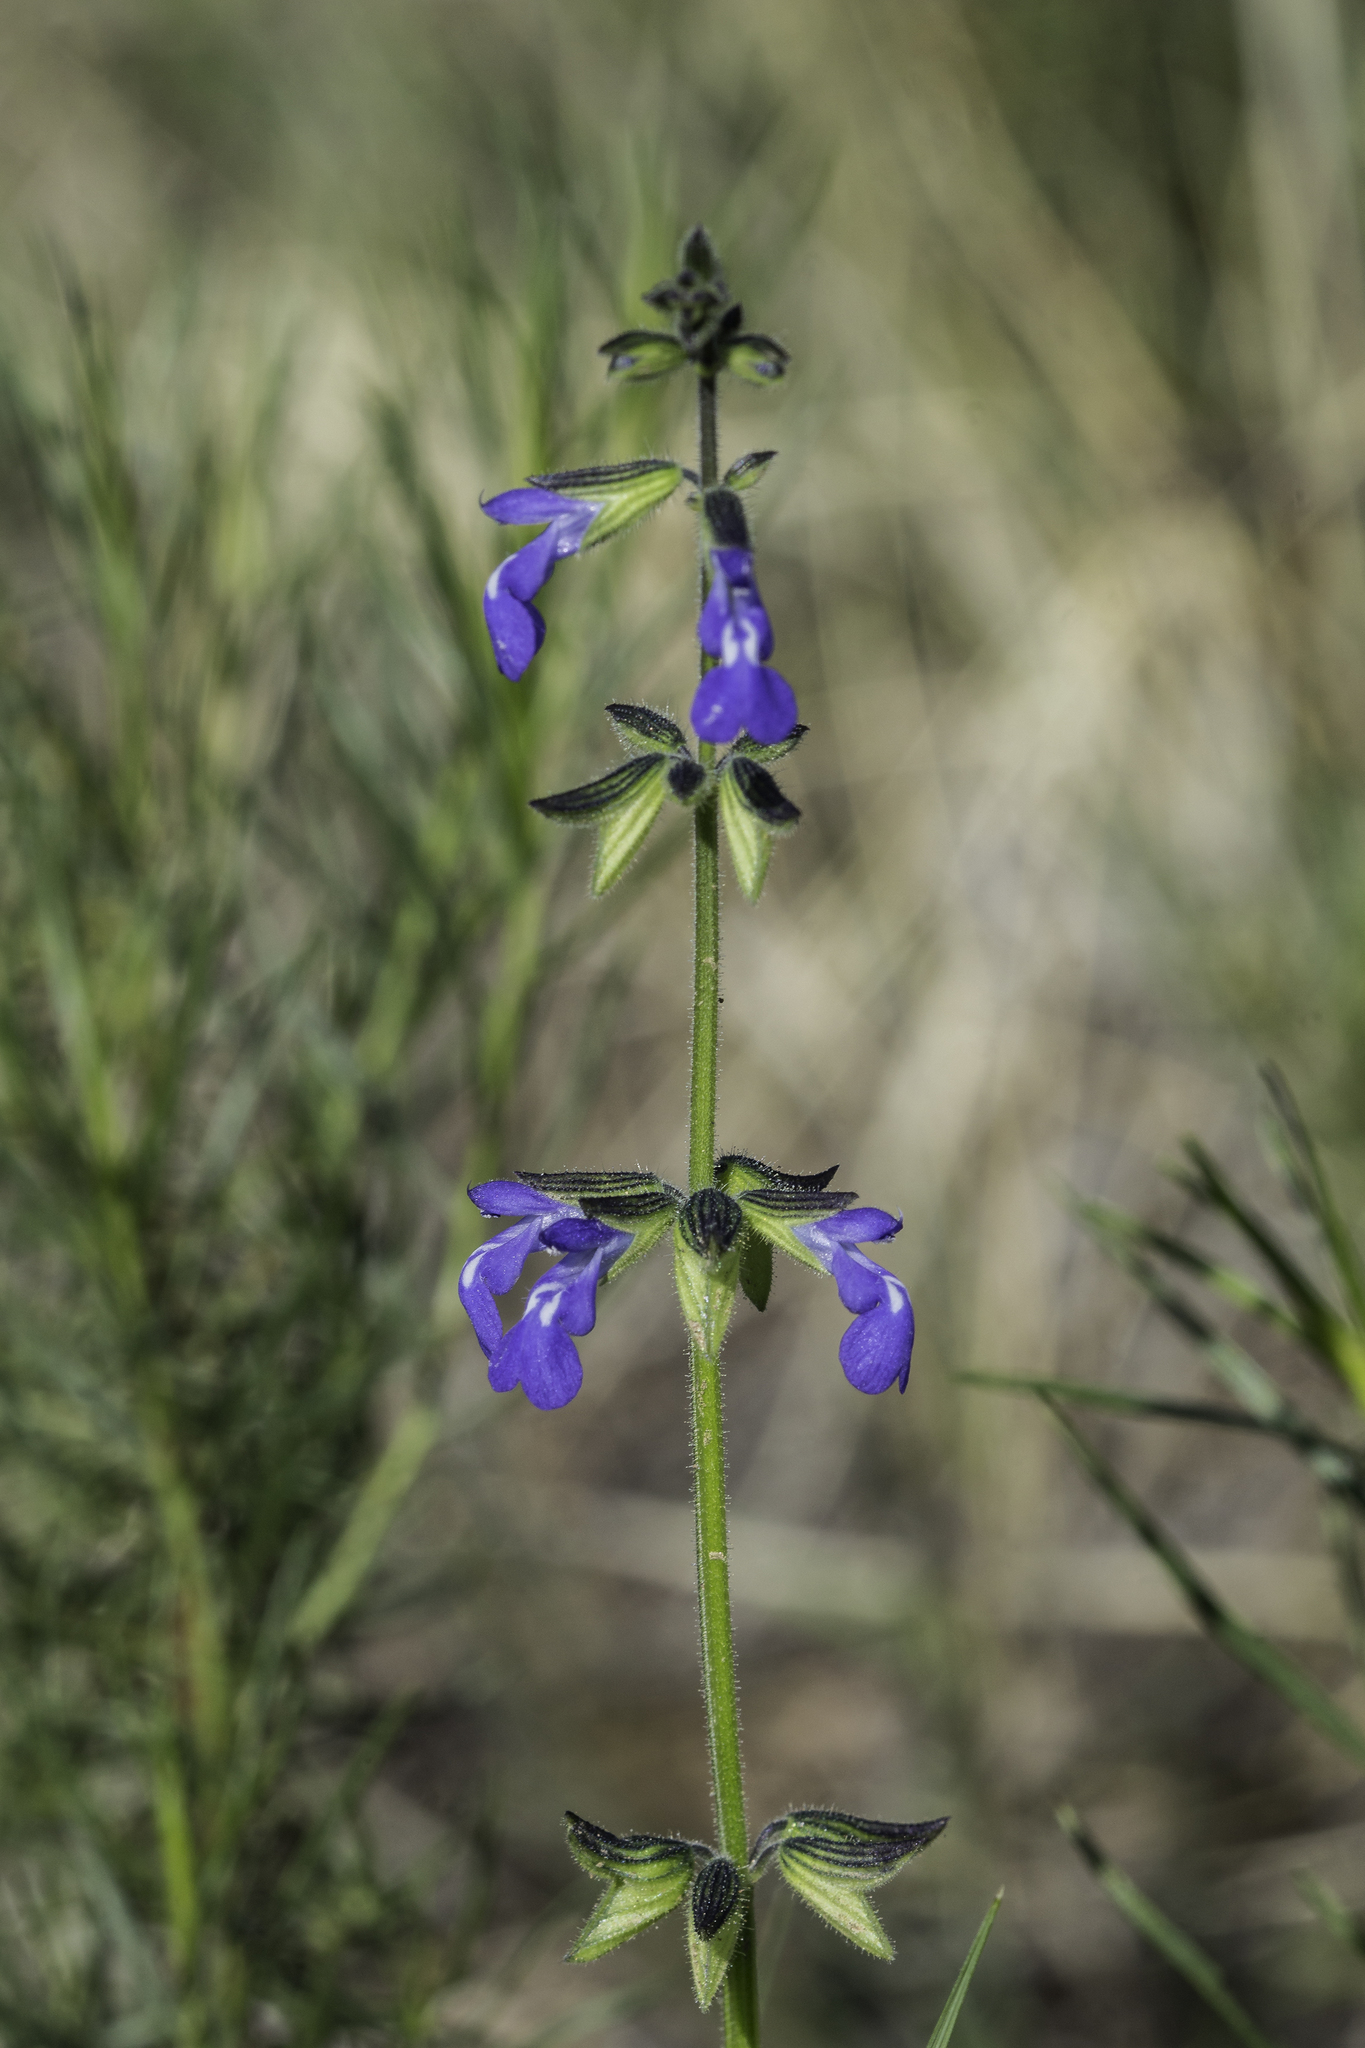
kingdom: Plantae
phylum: Tracheophyta
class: Magnoliopsida
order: Lamiales
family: Lamiaceae
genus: Salvia
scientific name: Salvia subincisa
